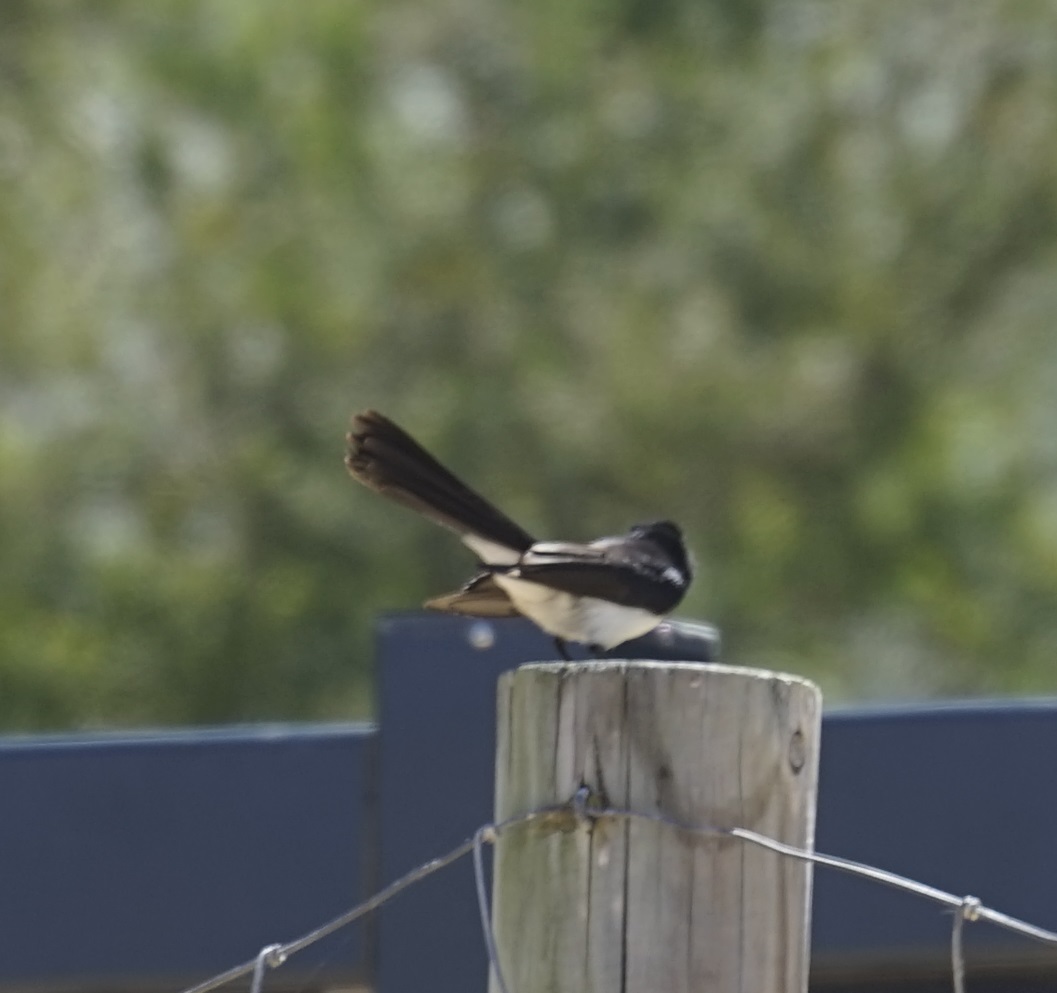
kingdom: Animalia
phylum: Chordata
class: Aves
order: Passeriformes
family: Rhipiduridae
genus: Rhipidura
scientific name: Rhipidura leucophrys
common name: Willie wagtail
